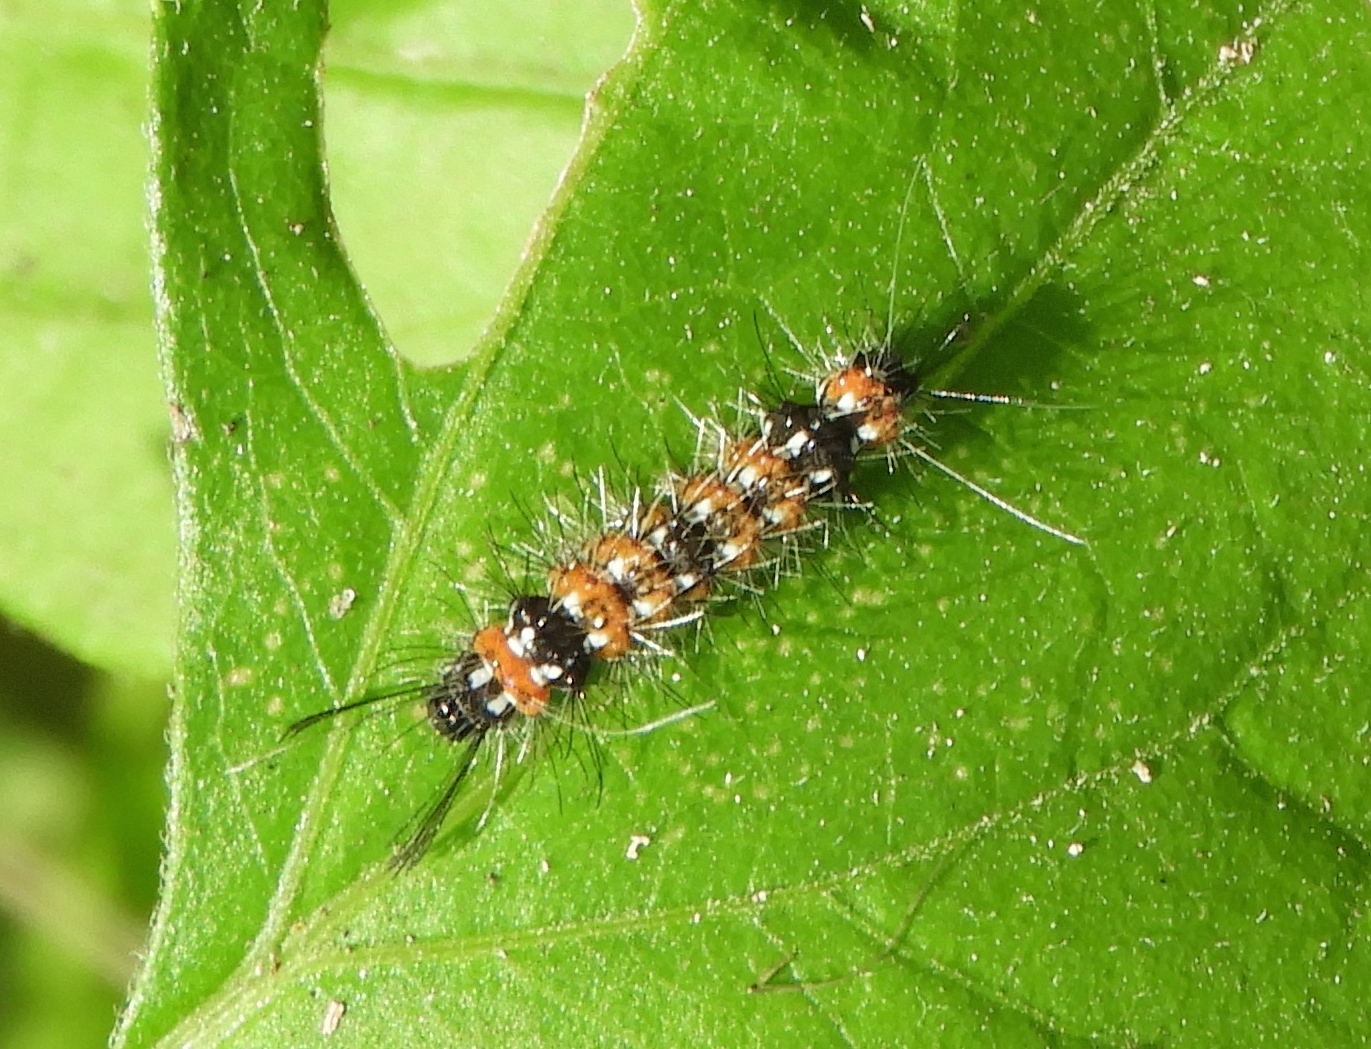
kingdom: Animalia
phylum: Arthropoda
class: Insecta
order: Lepidoptera
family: Erebidae
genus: Pareuchaetes
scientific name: Pareuchaetes insulata
